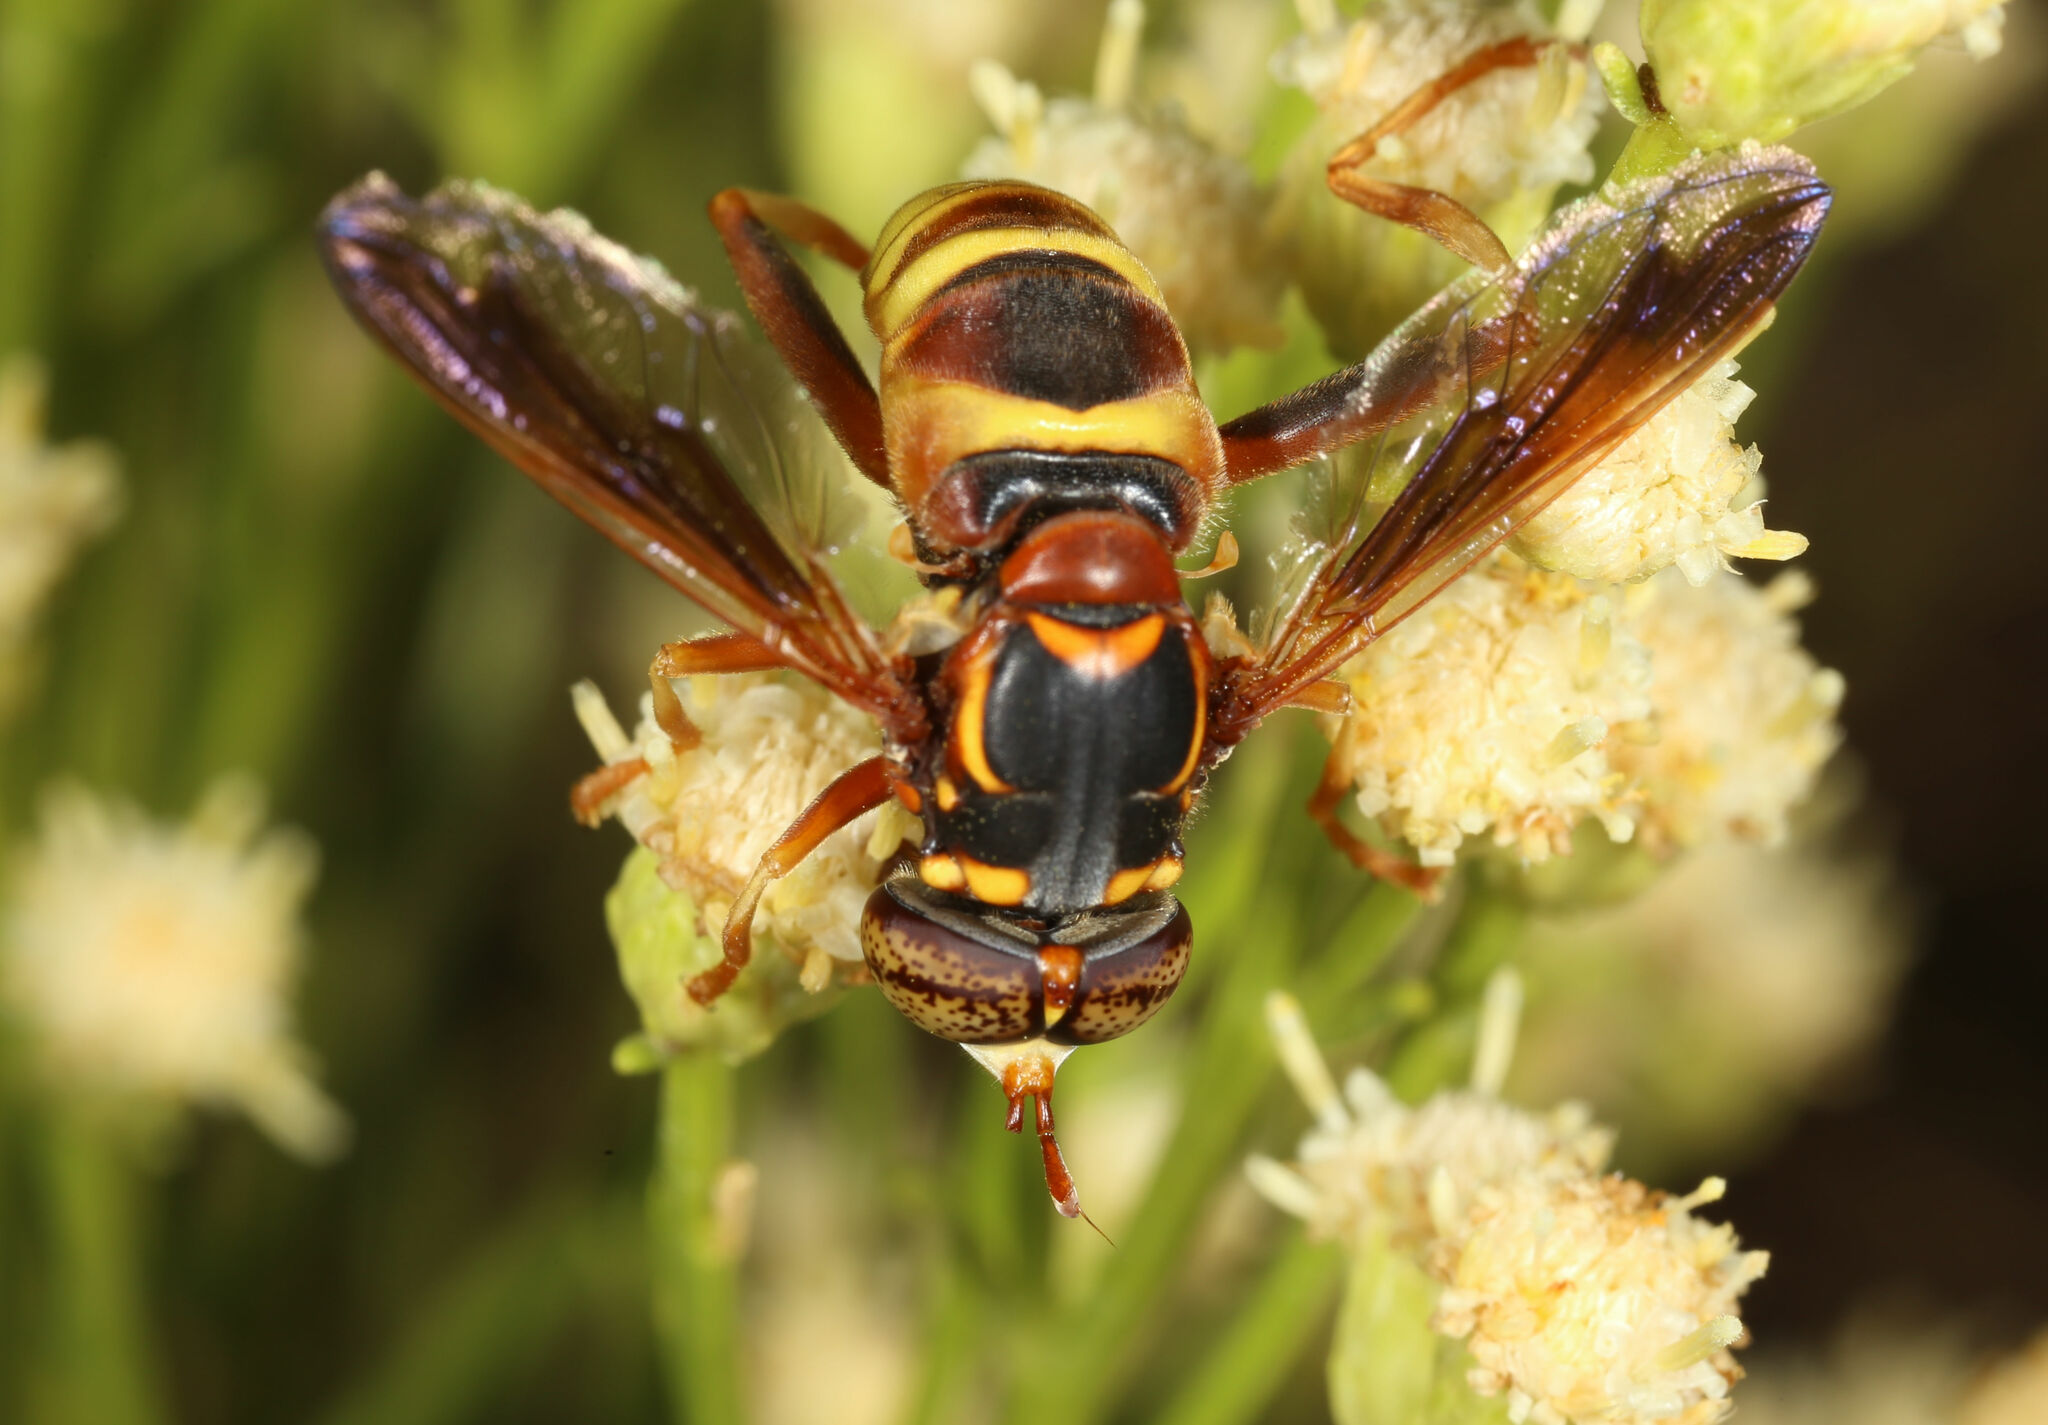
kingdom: Animalia
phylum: Arthropoda
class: Insecta
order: Diptera
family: Syrphidae
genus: Spilomyia
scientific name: Spilomyia kahli
